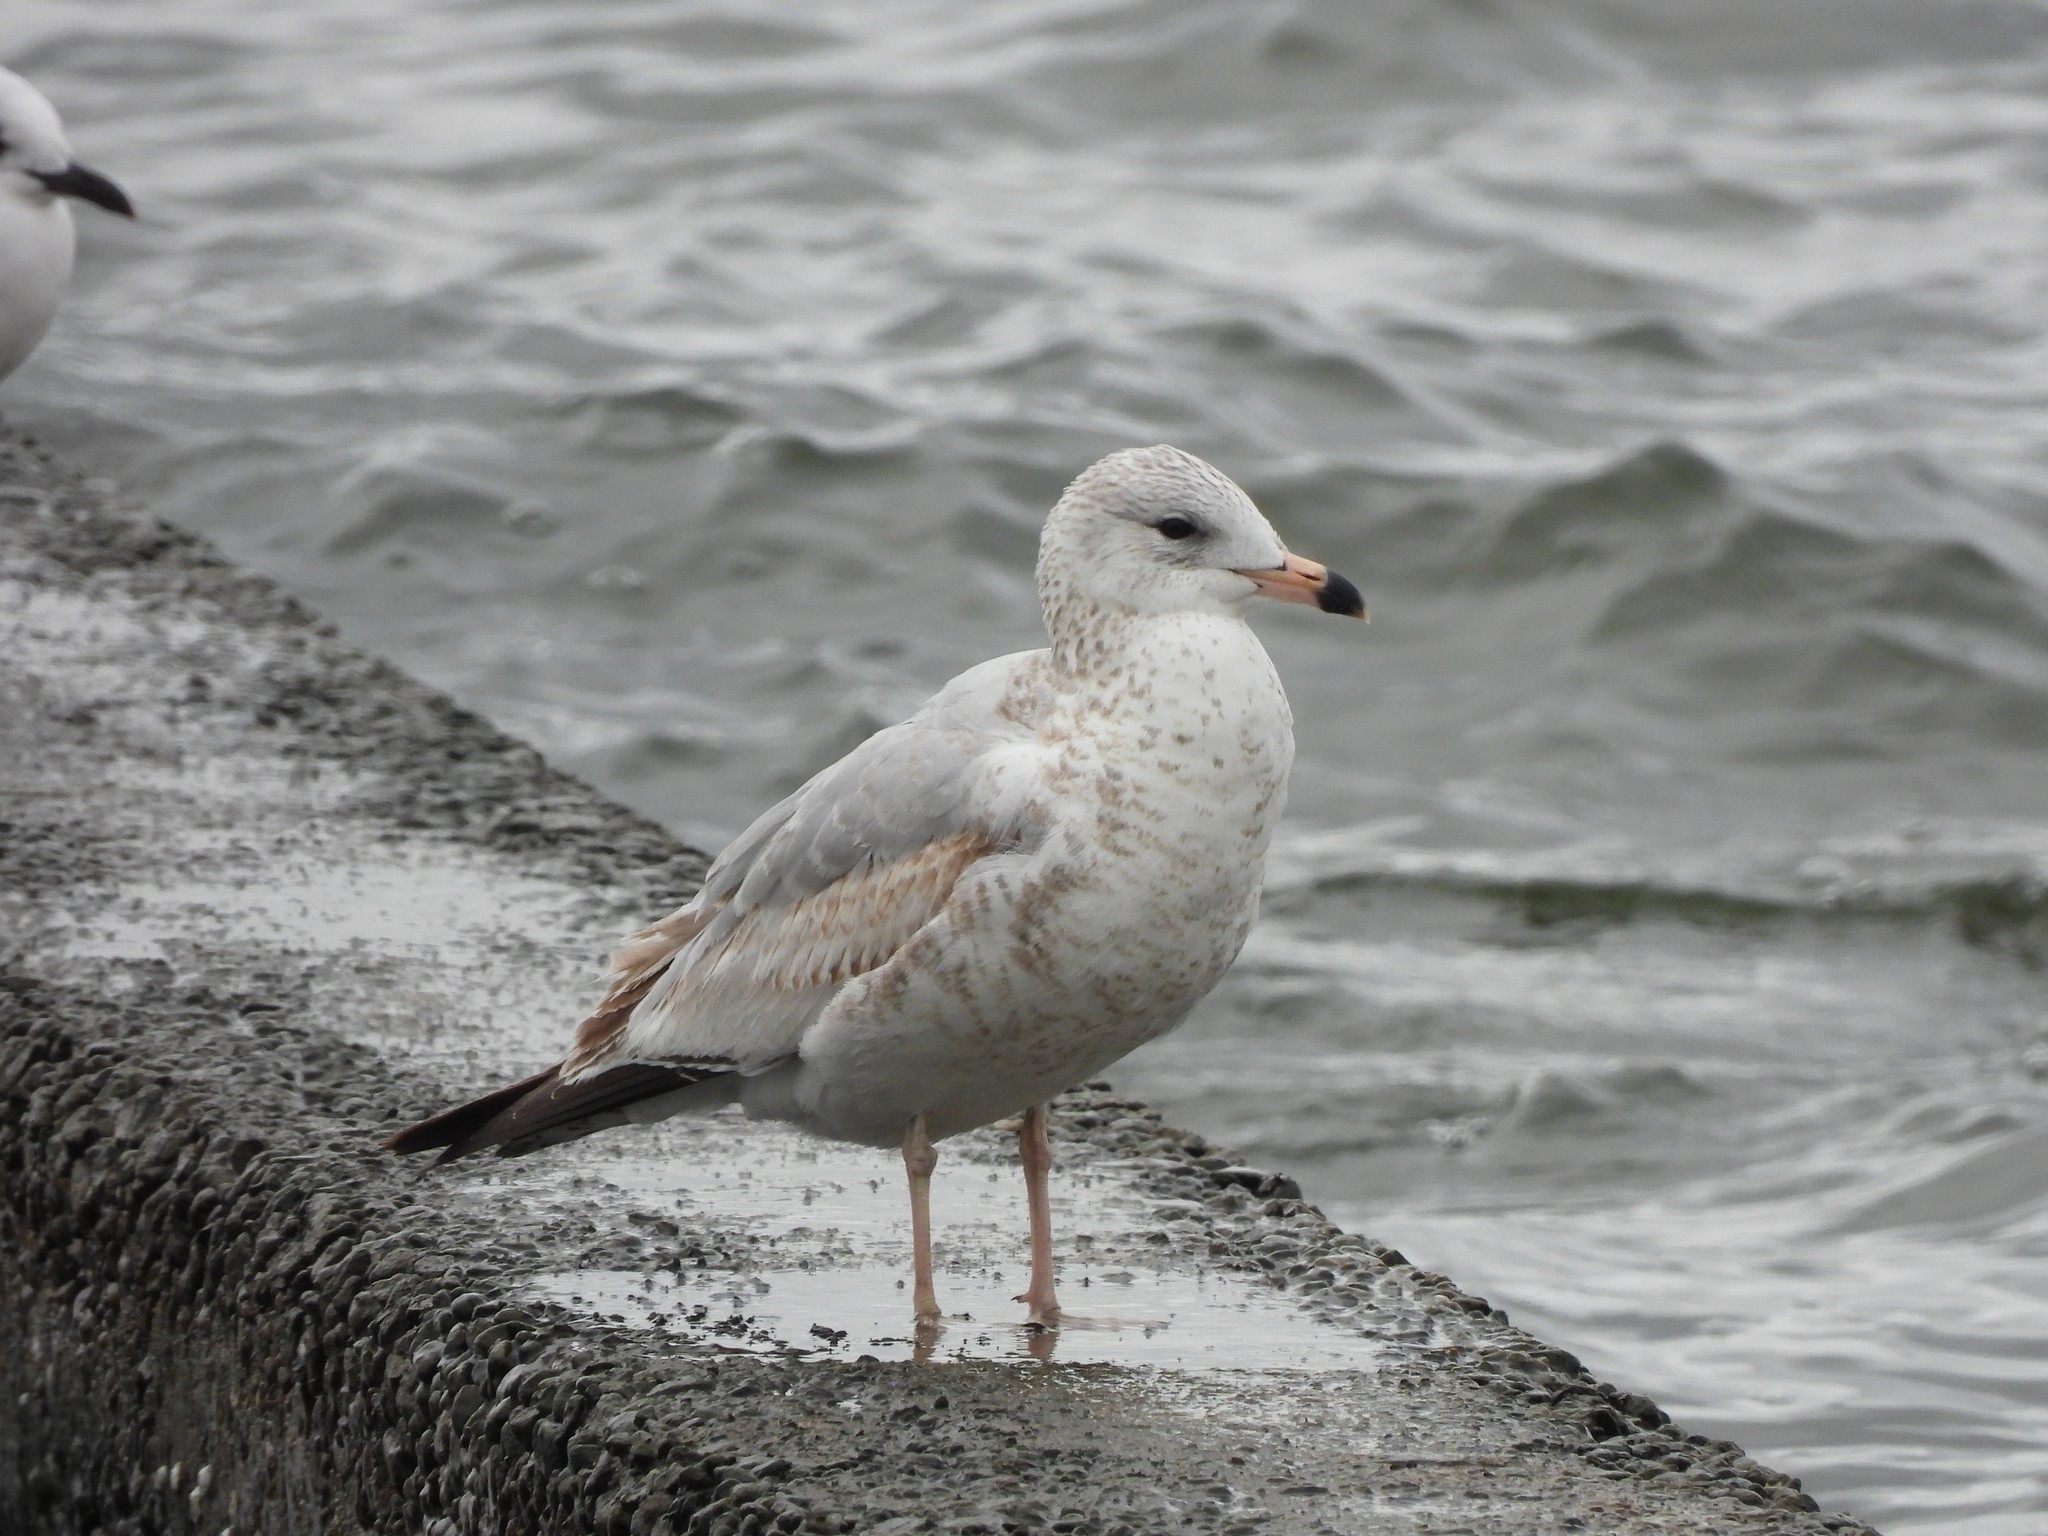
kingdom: Animalia
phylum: Chordata
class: Aves
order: Charadriiformes
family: Laridae
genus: Larus
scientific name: Larus delawarensis
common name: Ring-billed gull
